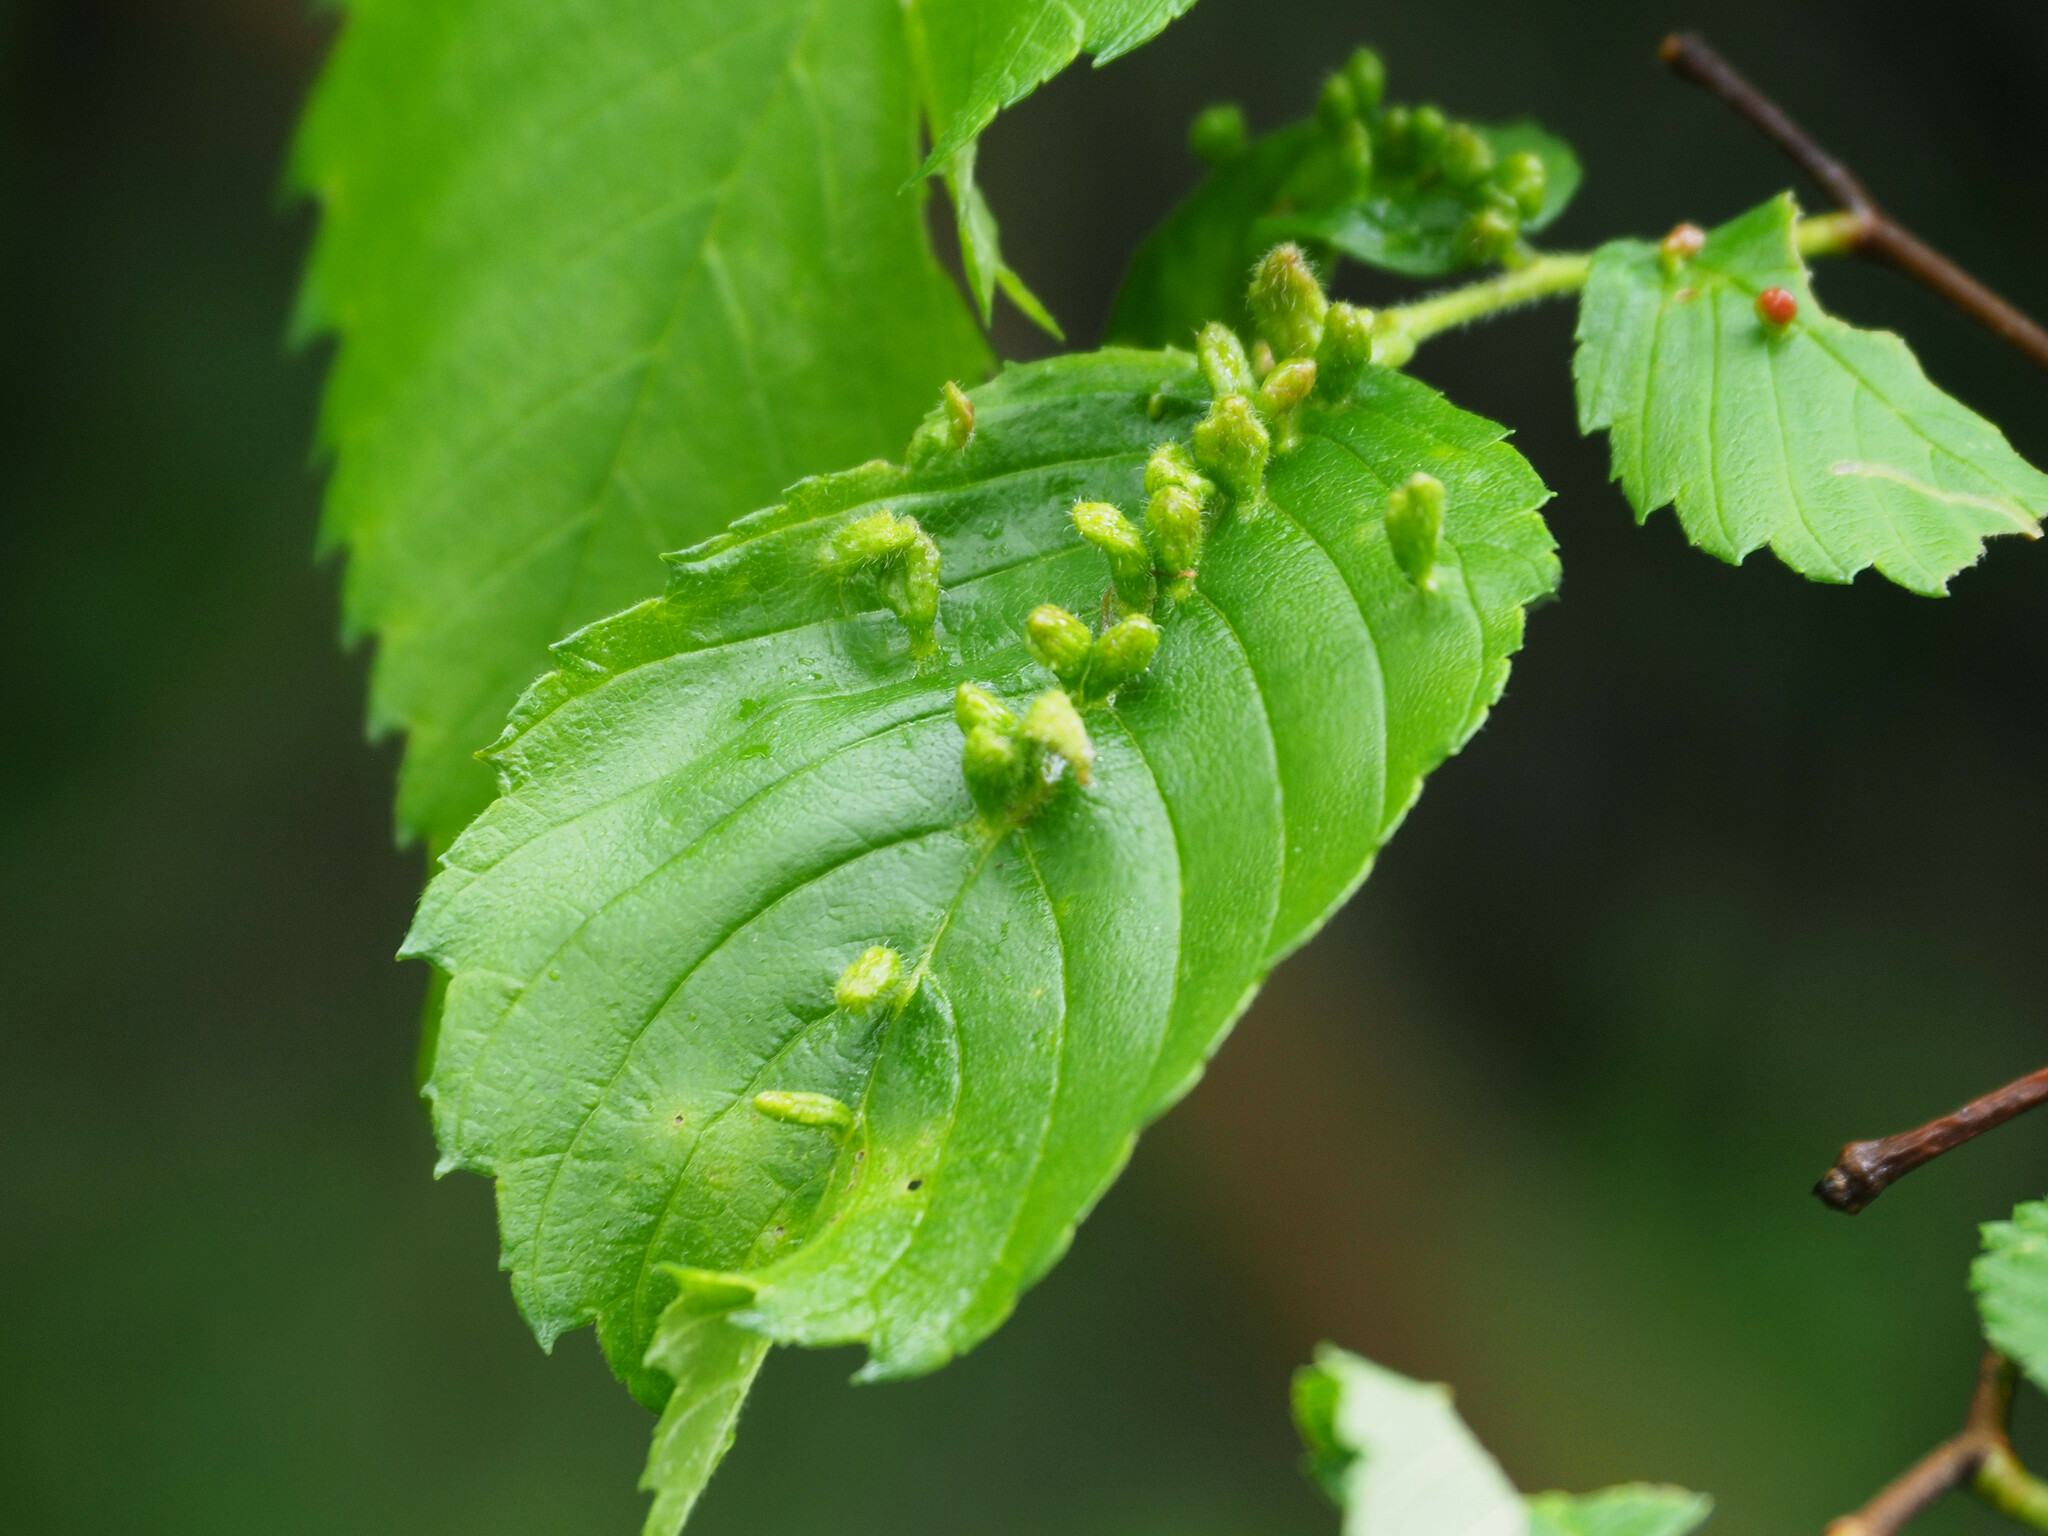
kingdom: Animalia
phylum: Arthropoda
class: Arachnida
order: Trombidiformes
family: Eriophyidae
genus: Aceria
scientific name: Aceria
